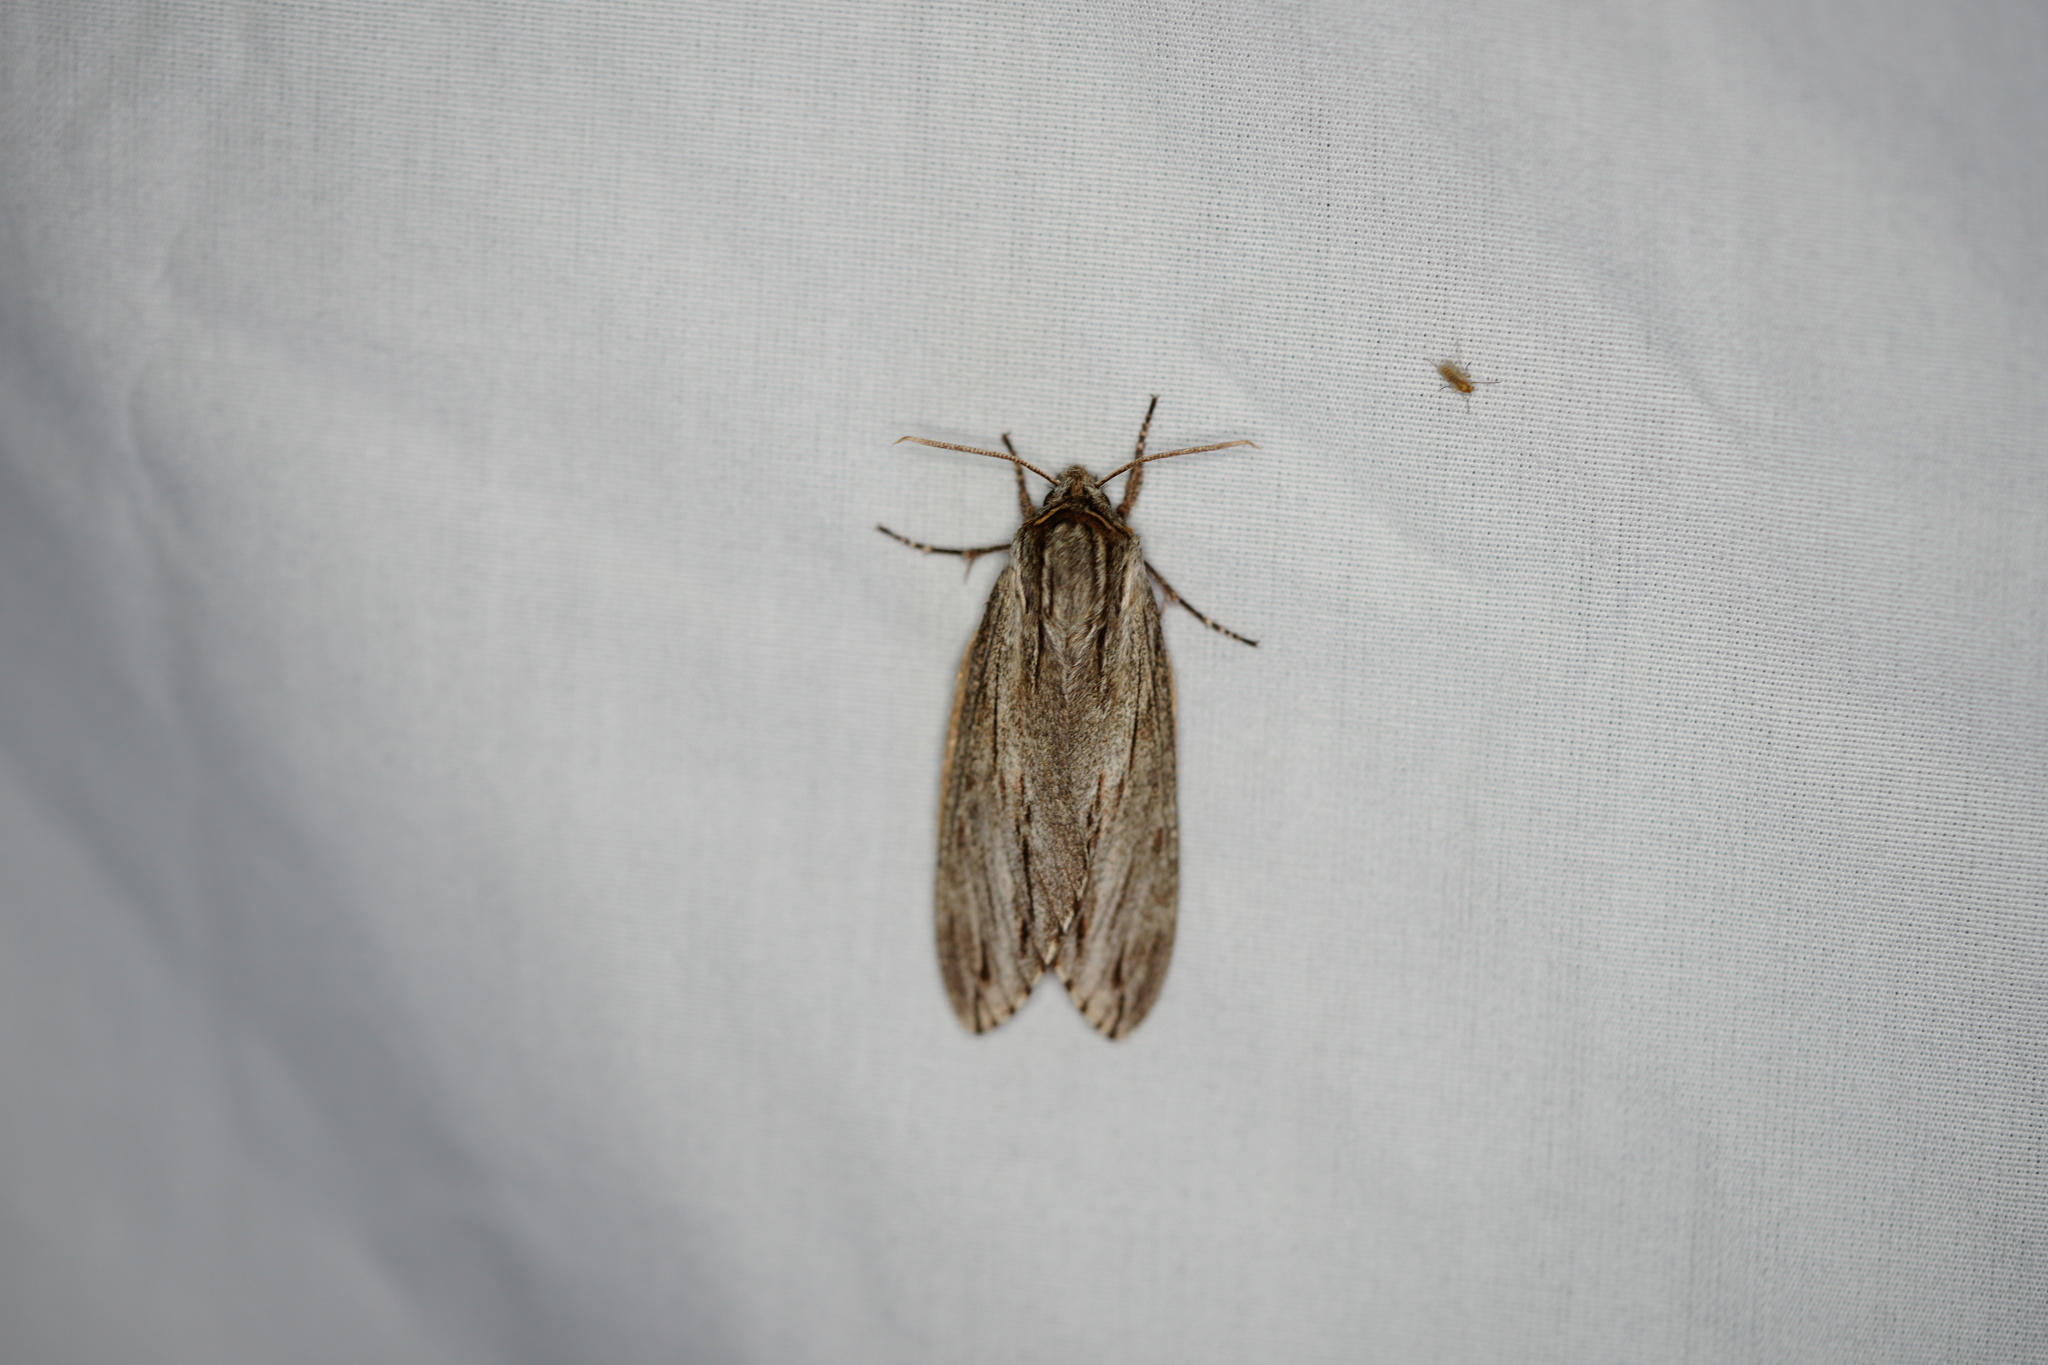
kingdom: Animalia
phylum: Arthropoda
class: Insecta
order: Lepidoptera
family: Sphingidae
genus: Isoparce
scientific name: Isoparce cupressi
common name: Cypress sphinx
